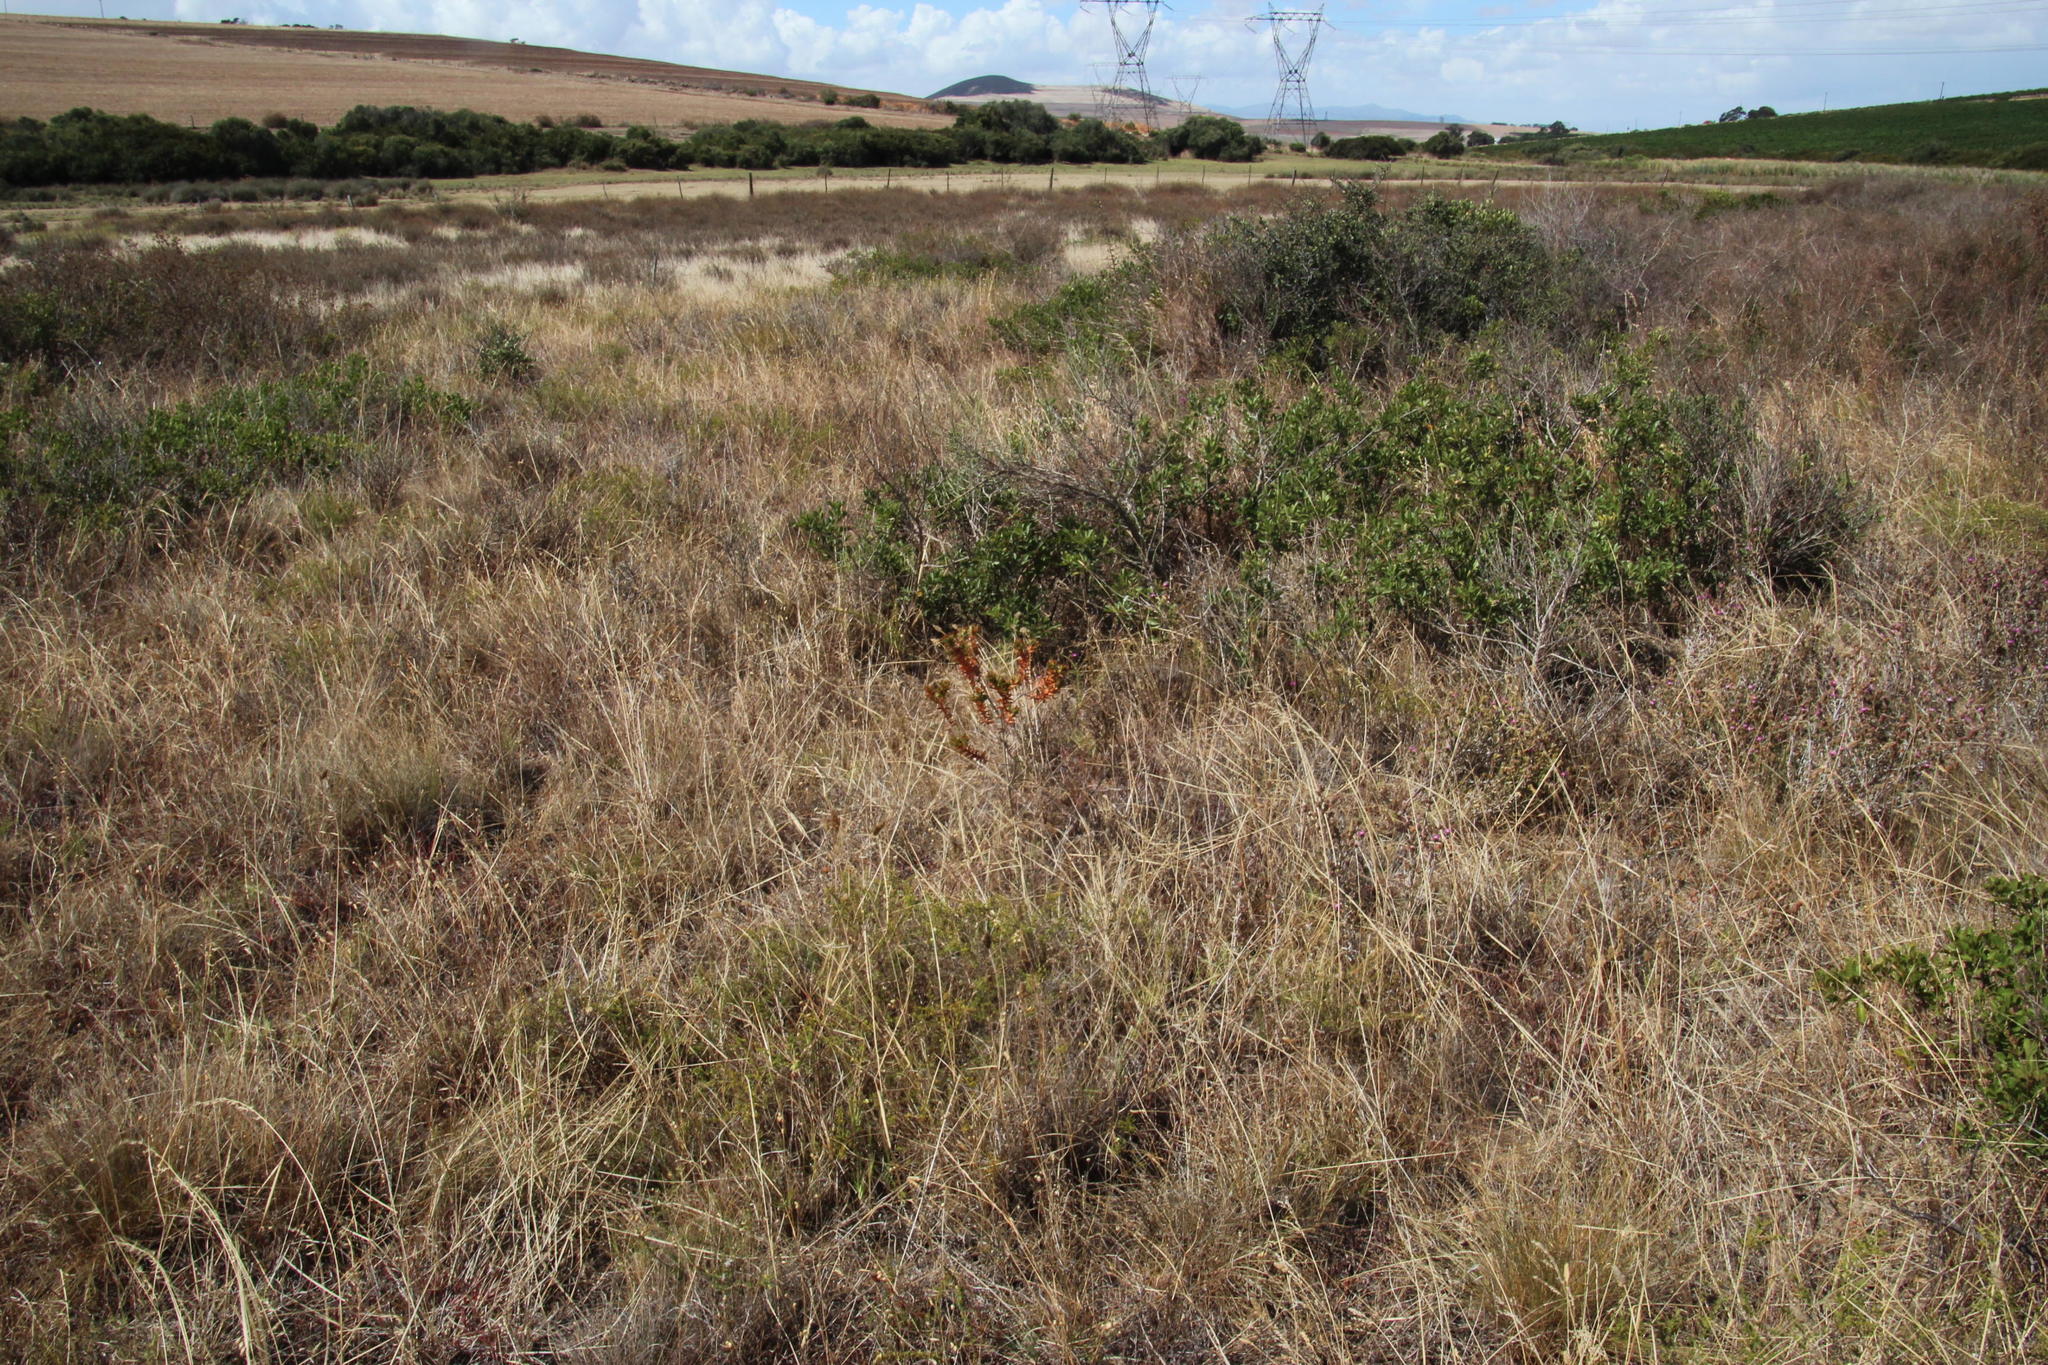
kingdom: Plantae
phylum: Tracheophyta
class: Magnoliopsida
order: Fabales
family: Fabaceae
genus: Aspalathus
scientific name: Aspalathus cordata
